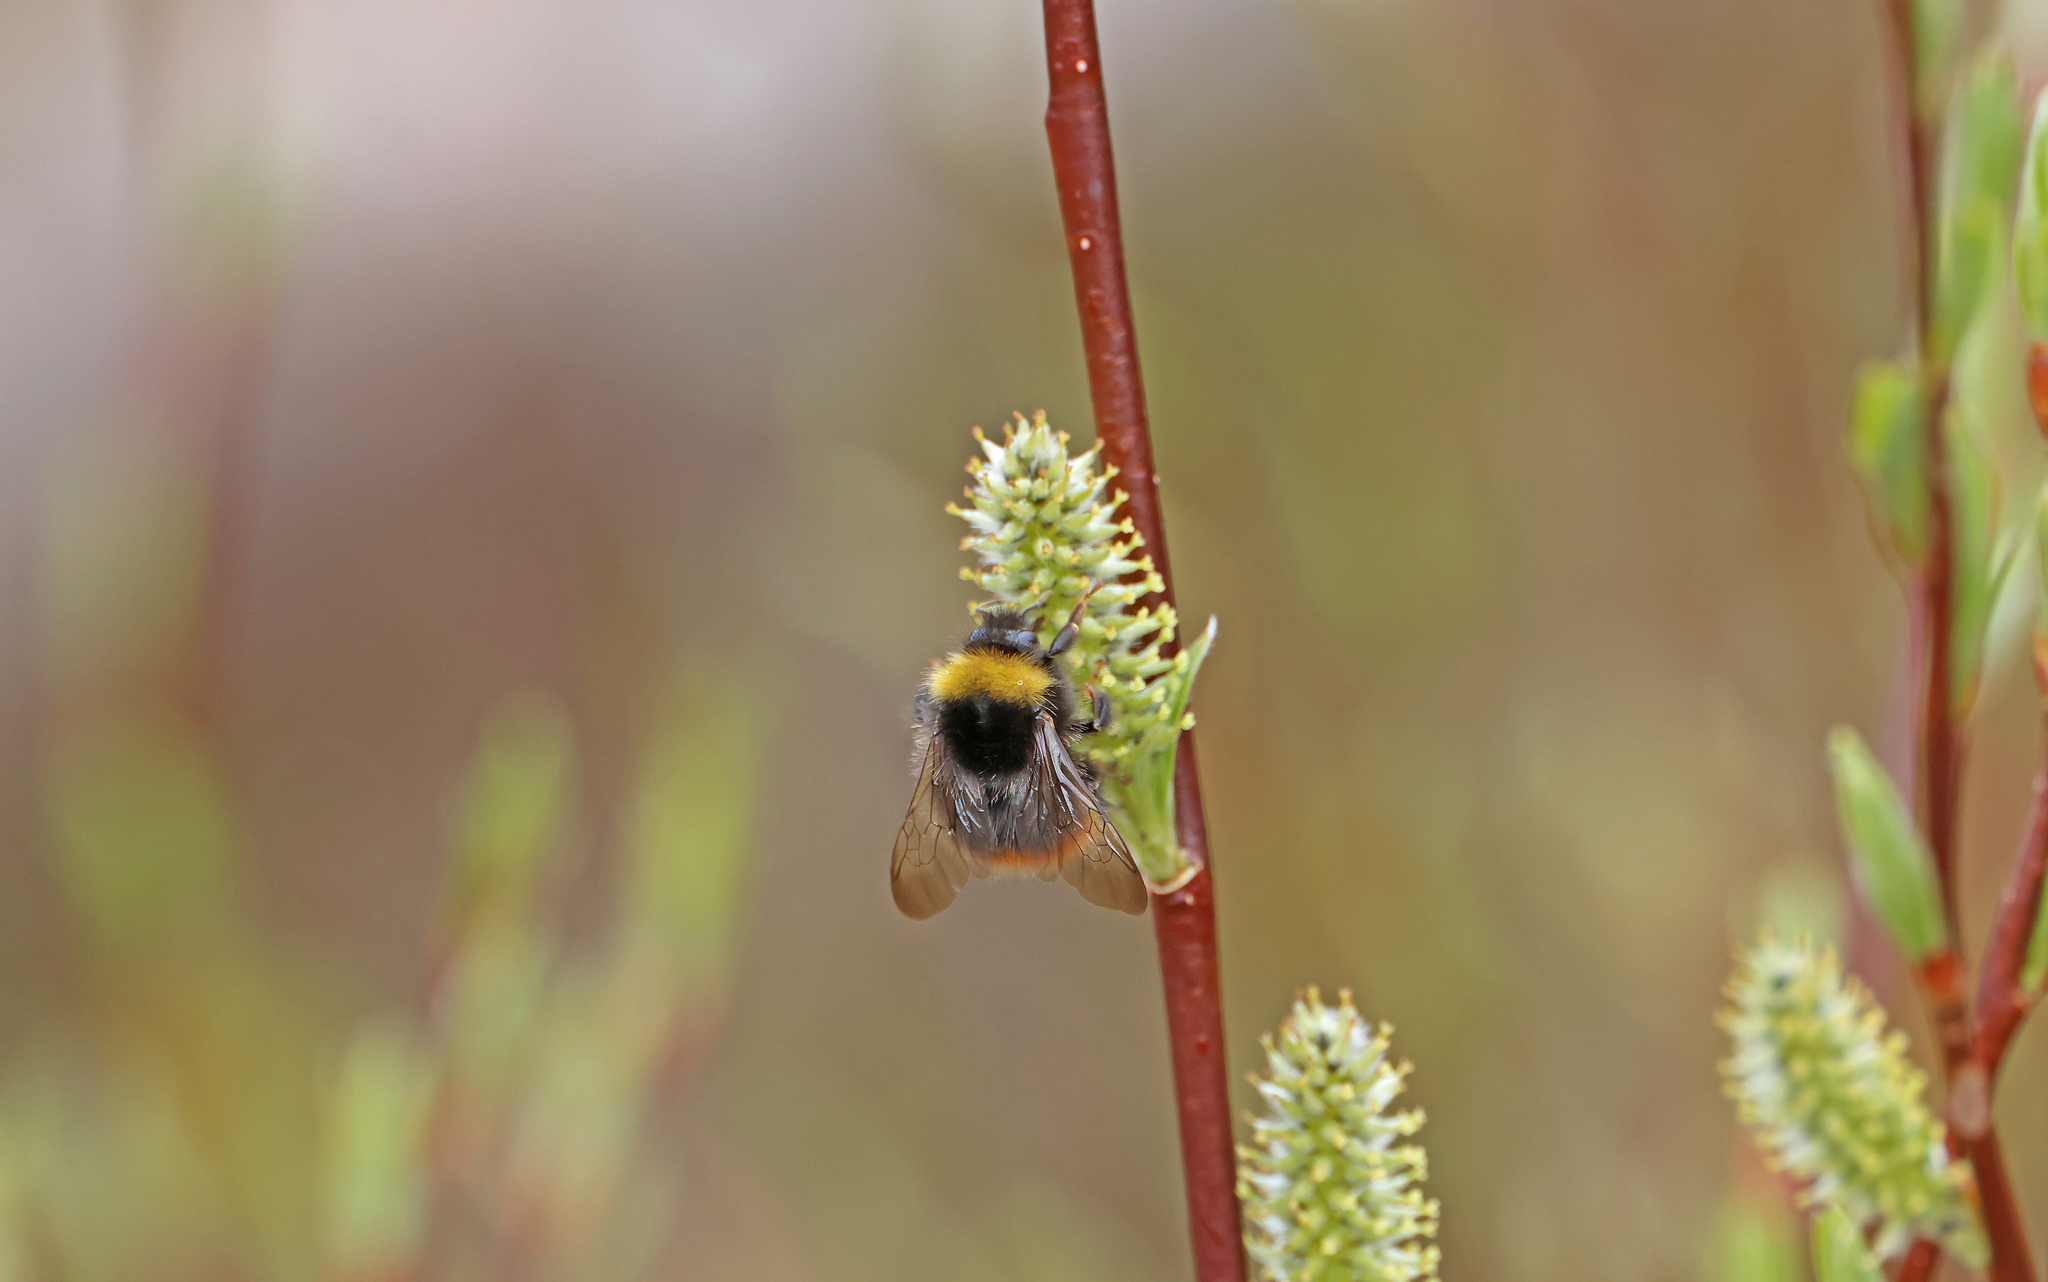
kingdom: Animalia
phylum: Arthropoda
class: Insecta
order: Hymenoptera
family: Apidae
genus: Bombus
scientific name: Bombus pratorum
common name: Early humble-bee
